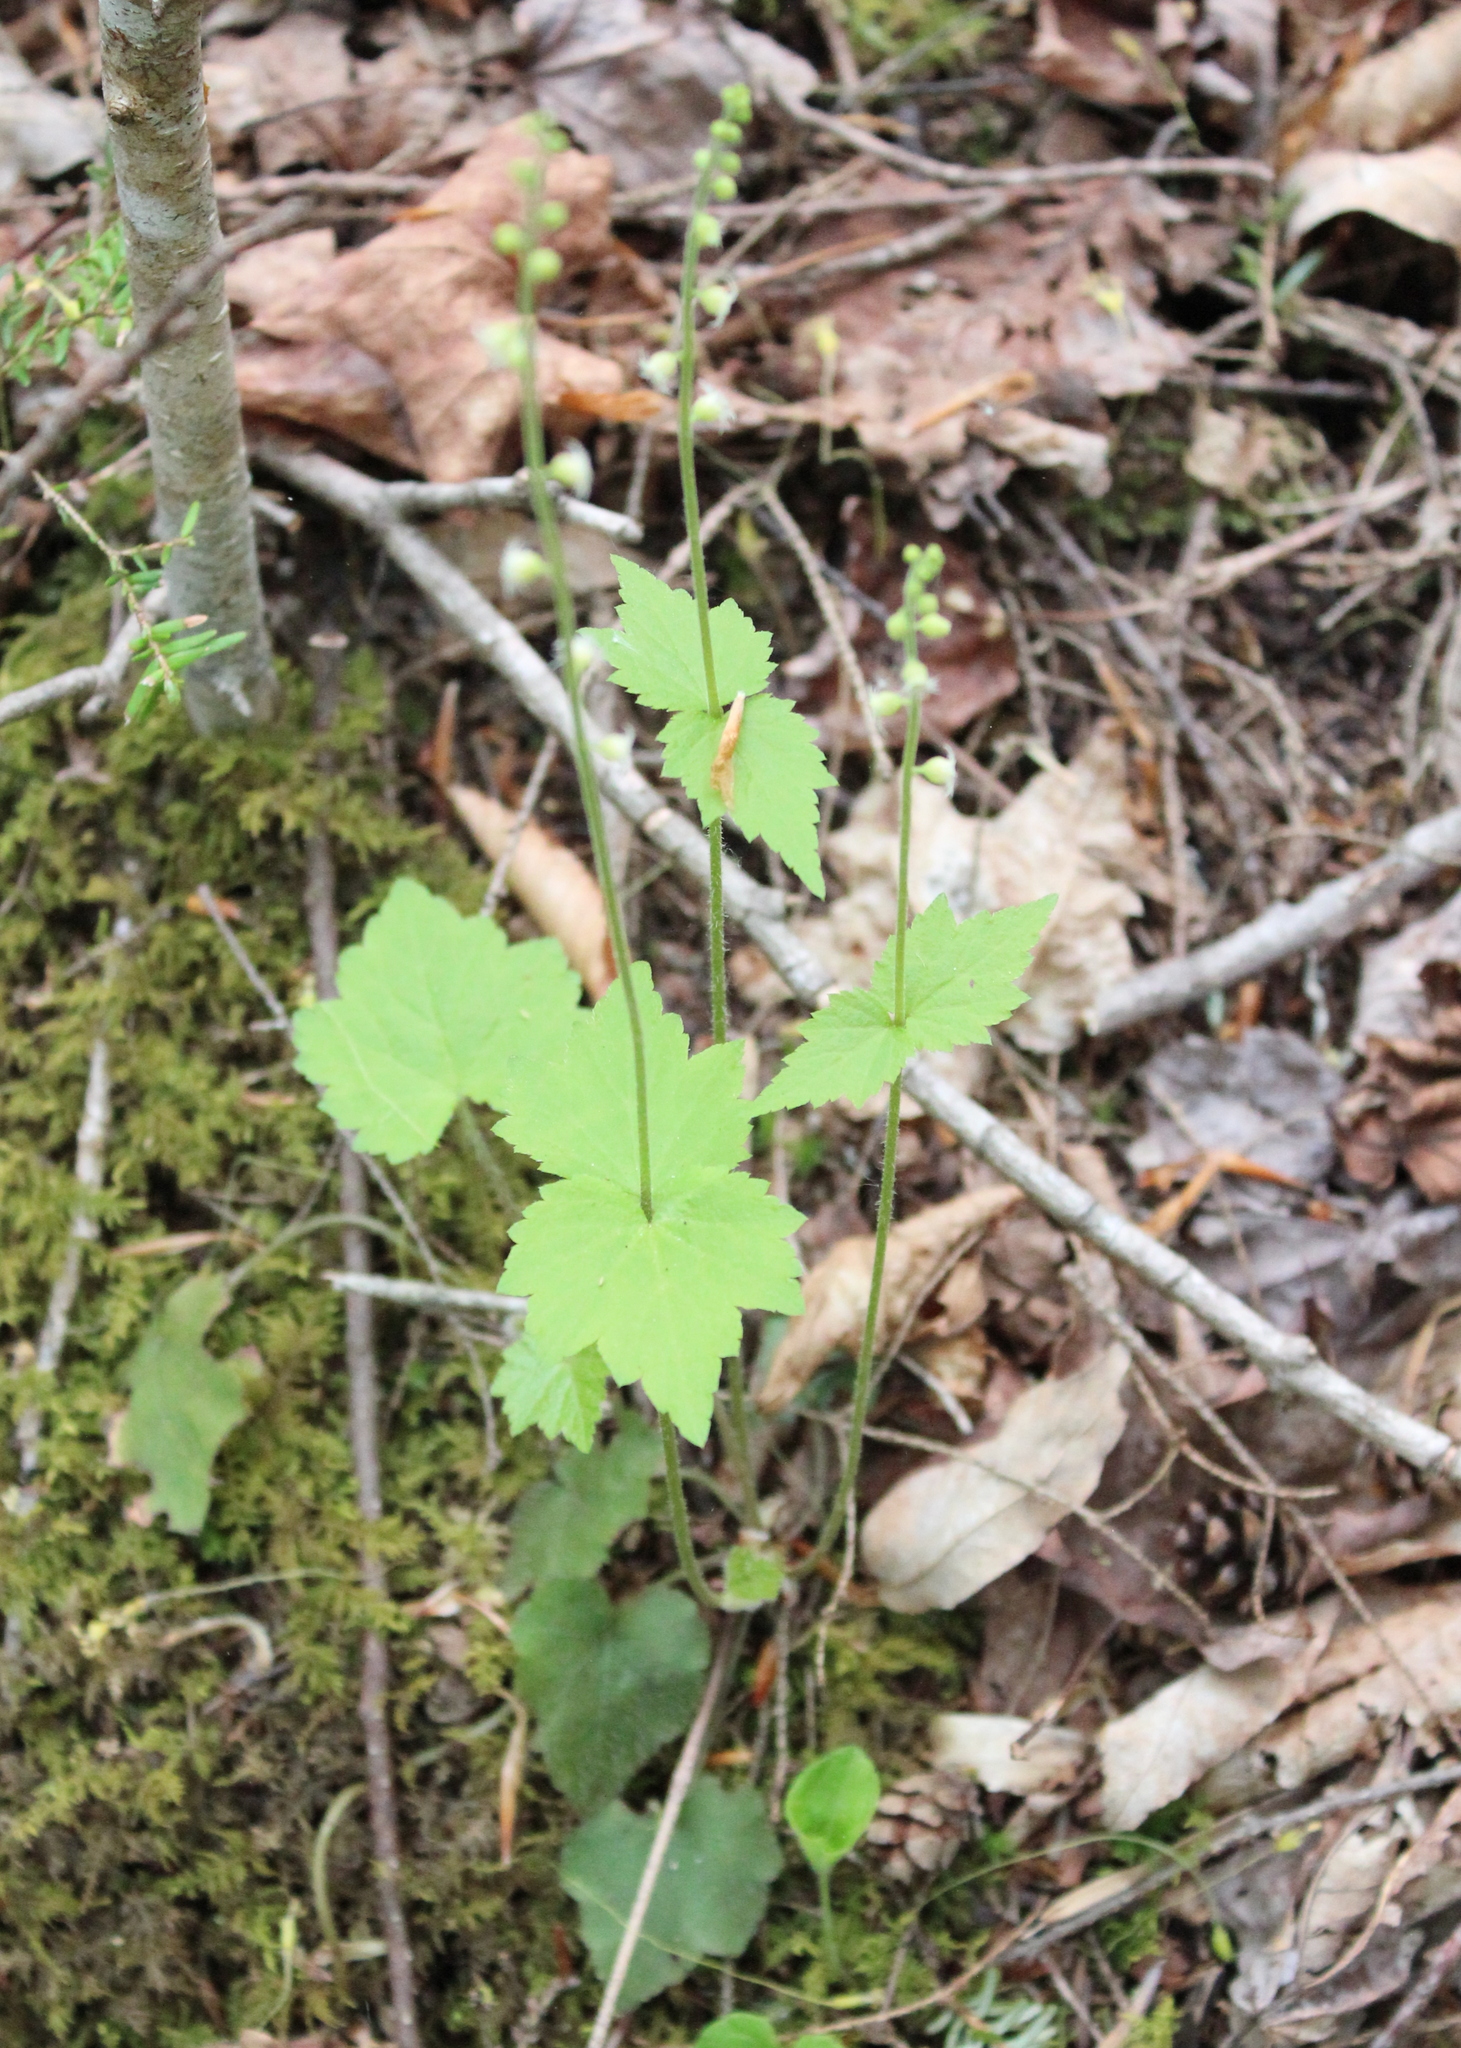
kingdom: Plantae
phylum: Tracheophyta
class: Magnoliopsida
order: Saxifragales
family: Saxifragaceae
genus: Mitella
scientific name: Mitella diphylla
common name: Coolwort
